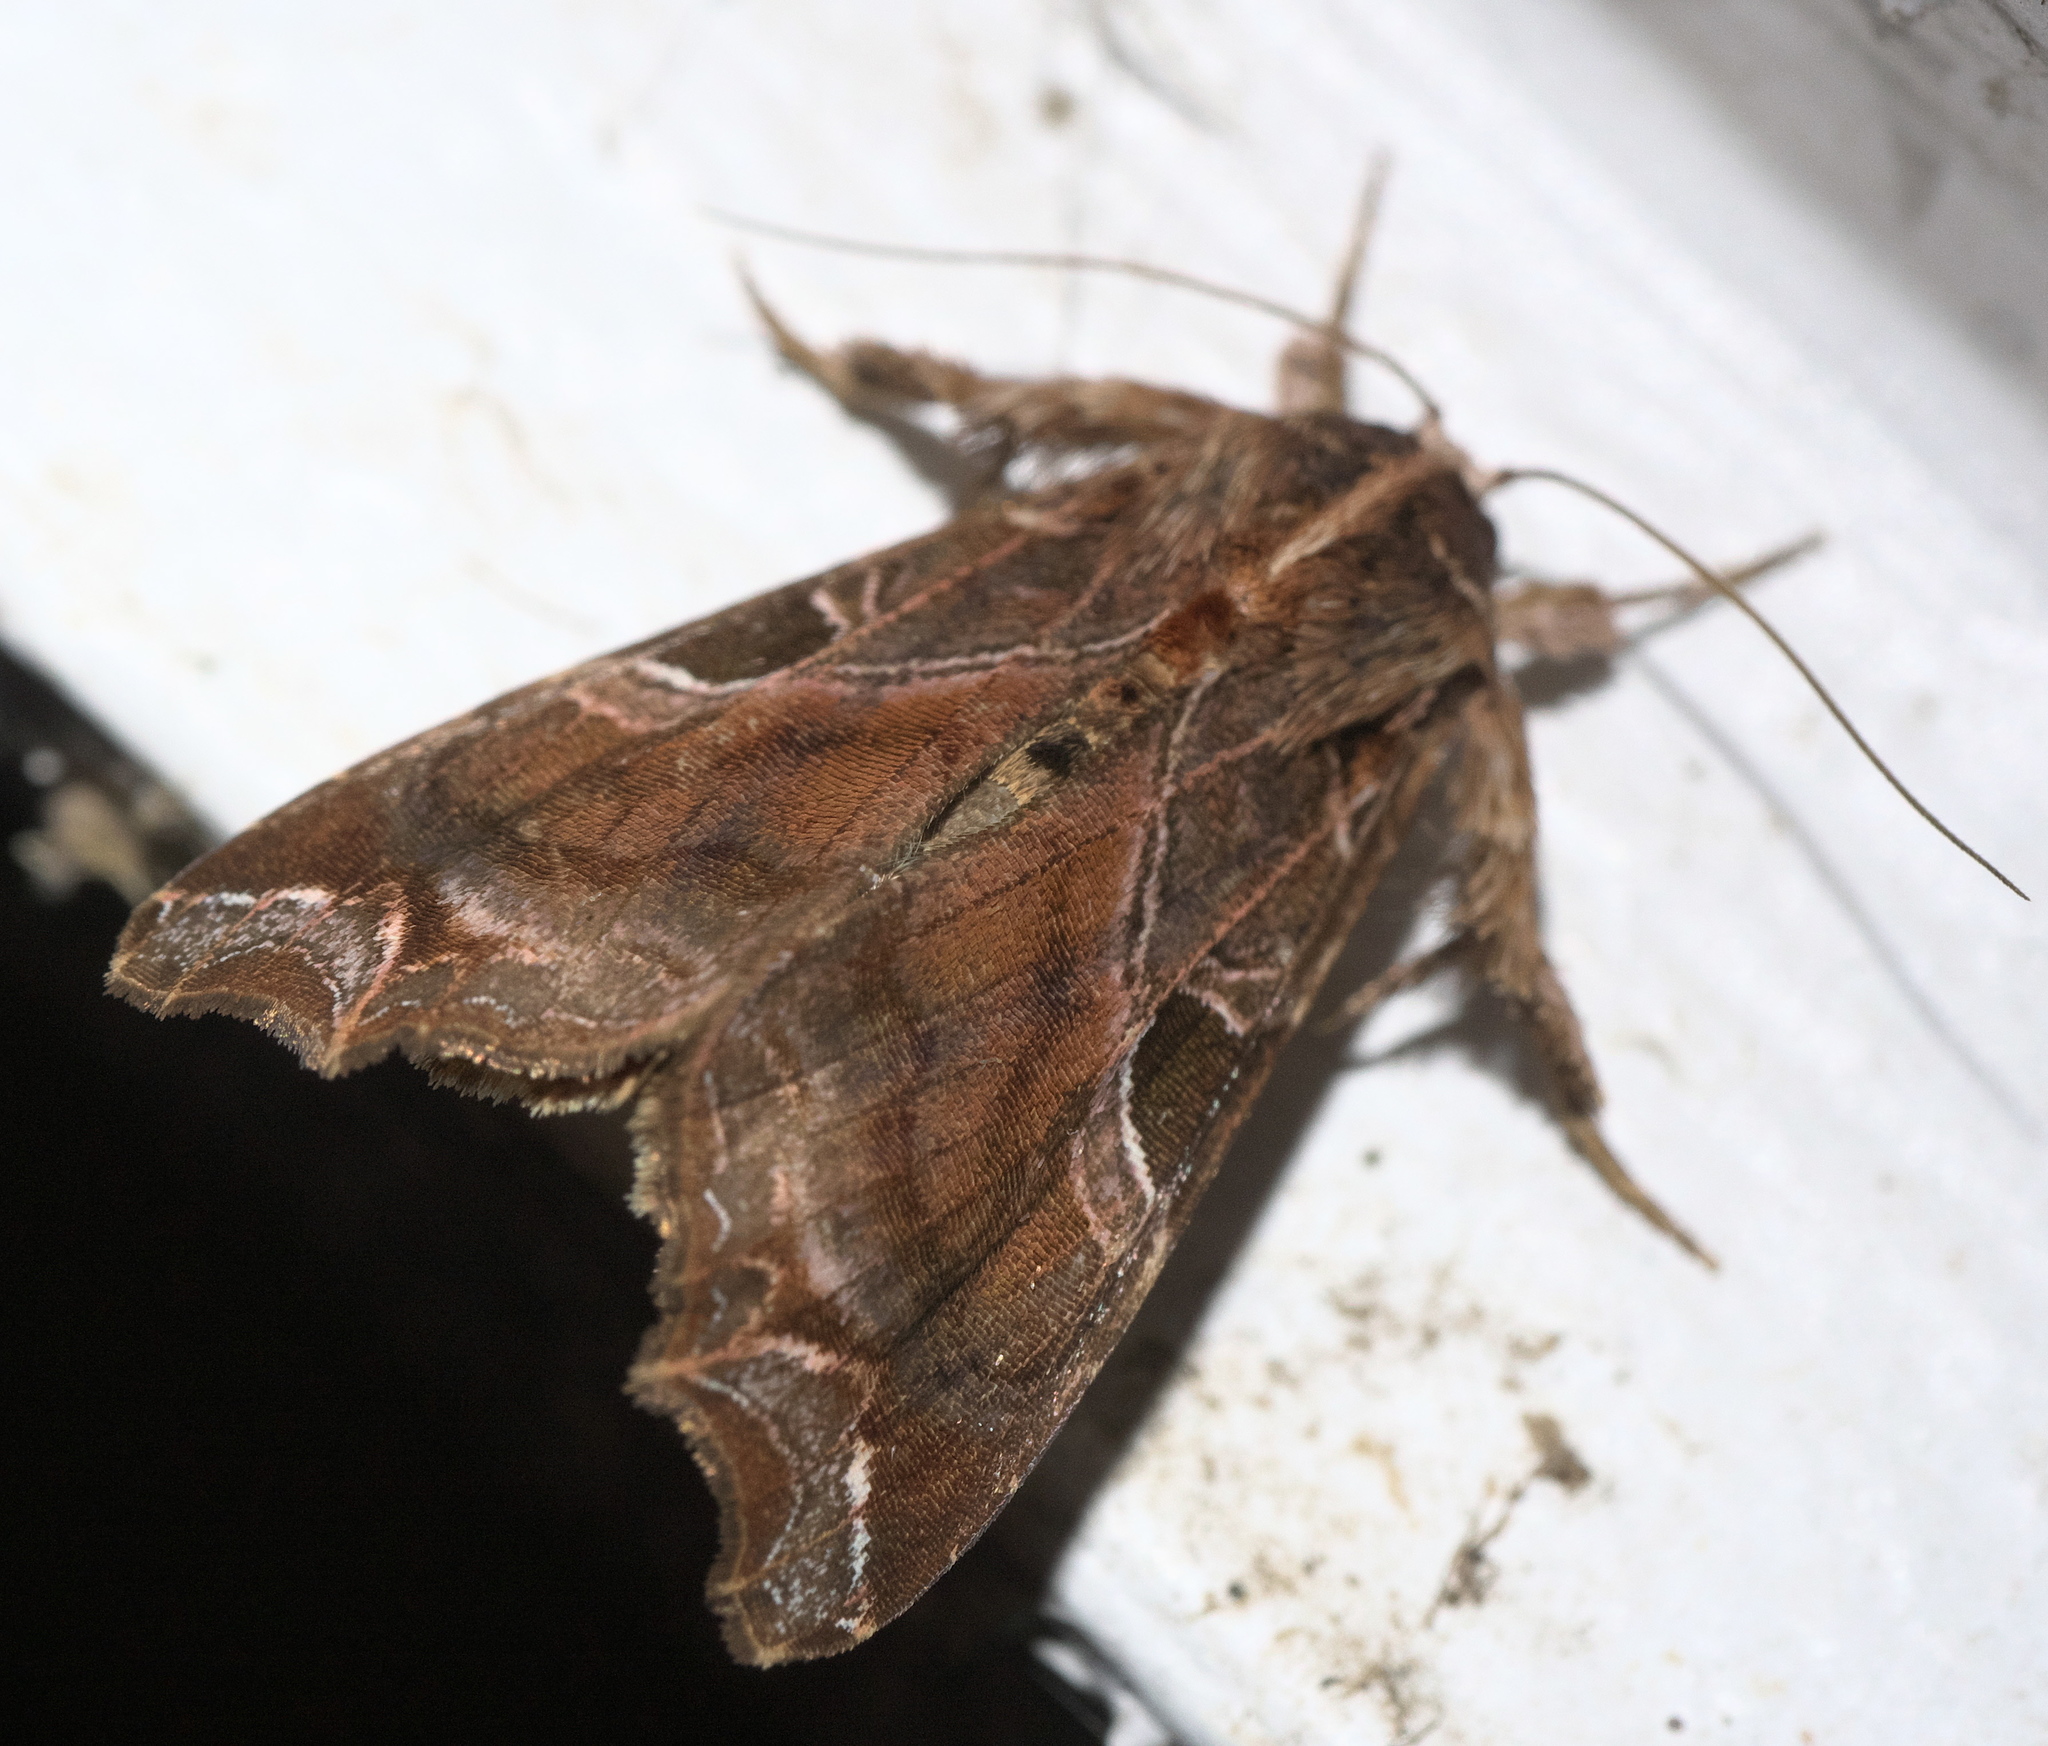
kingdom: Animalia
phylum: Arthropoda
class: Insecta
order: Lepidoptera
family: Noctuidae
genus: Callopistria
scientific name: Callopistria floridensis
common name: Florida fern moth
